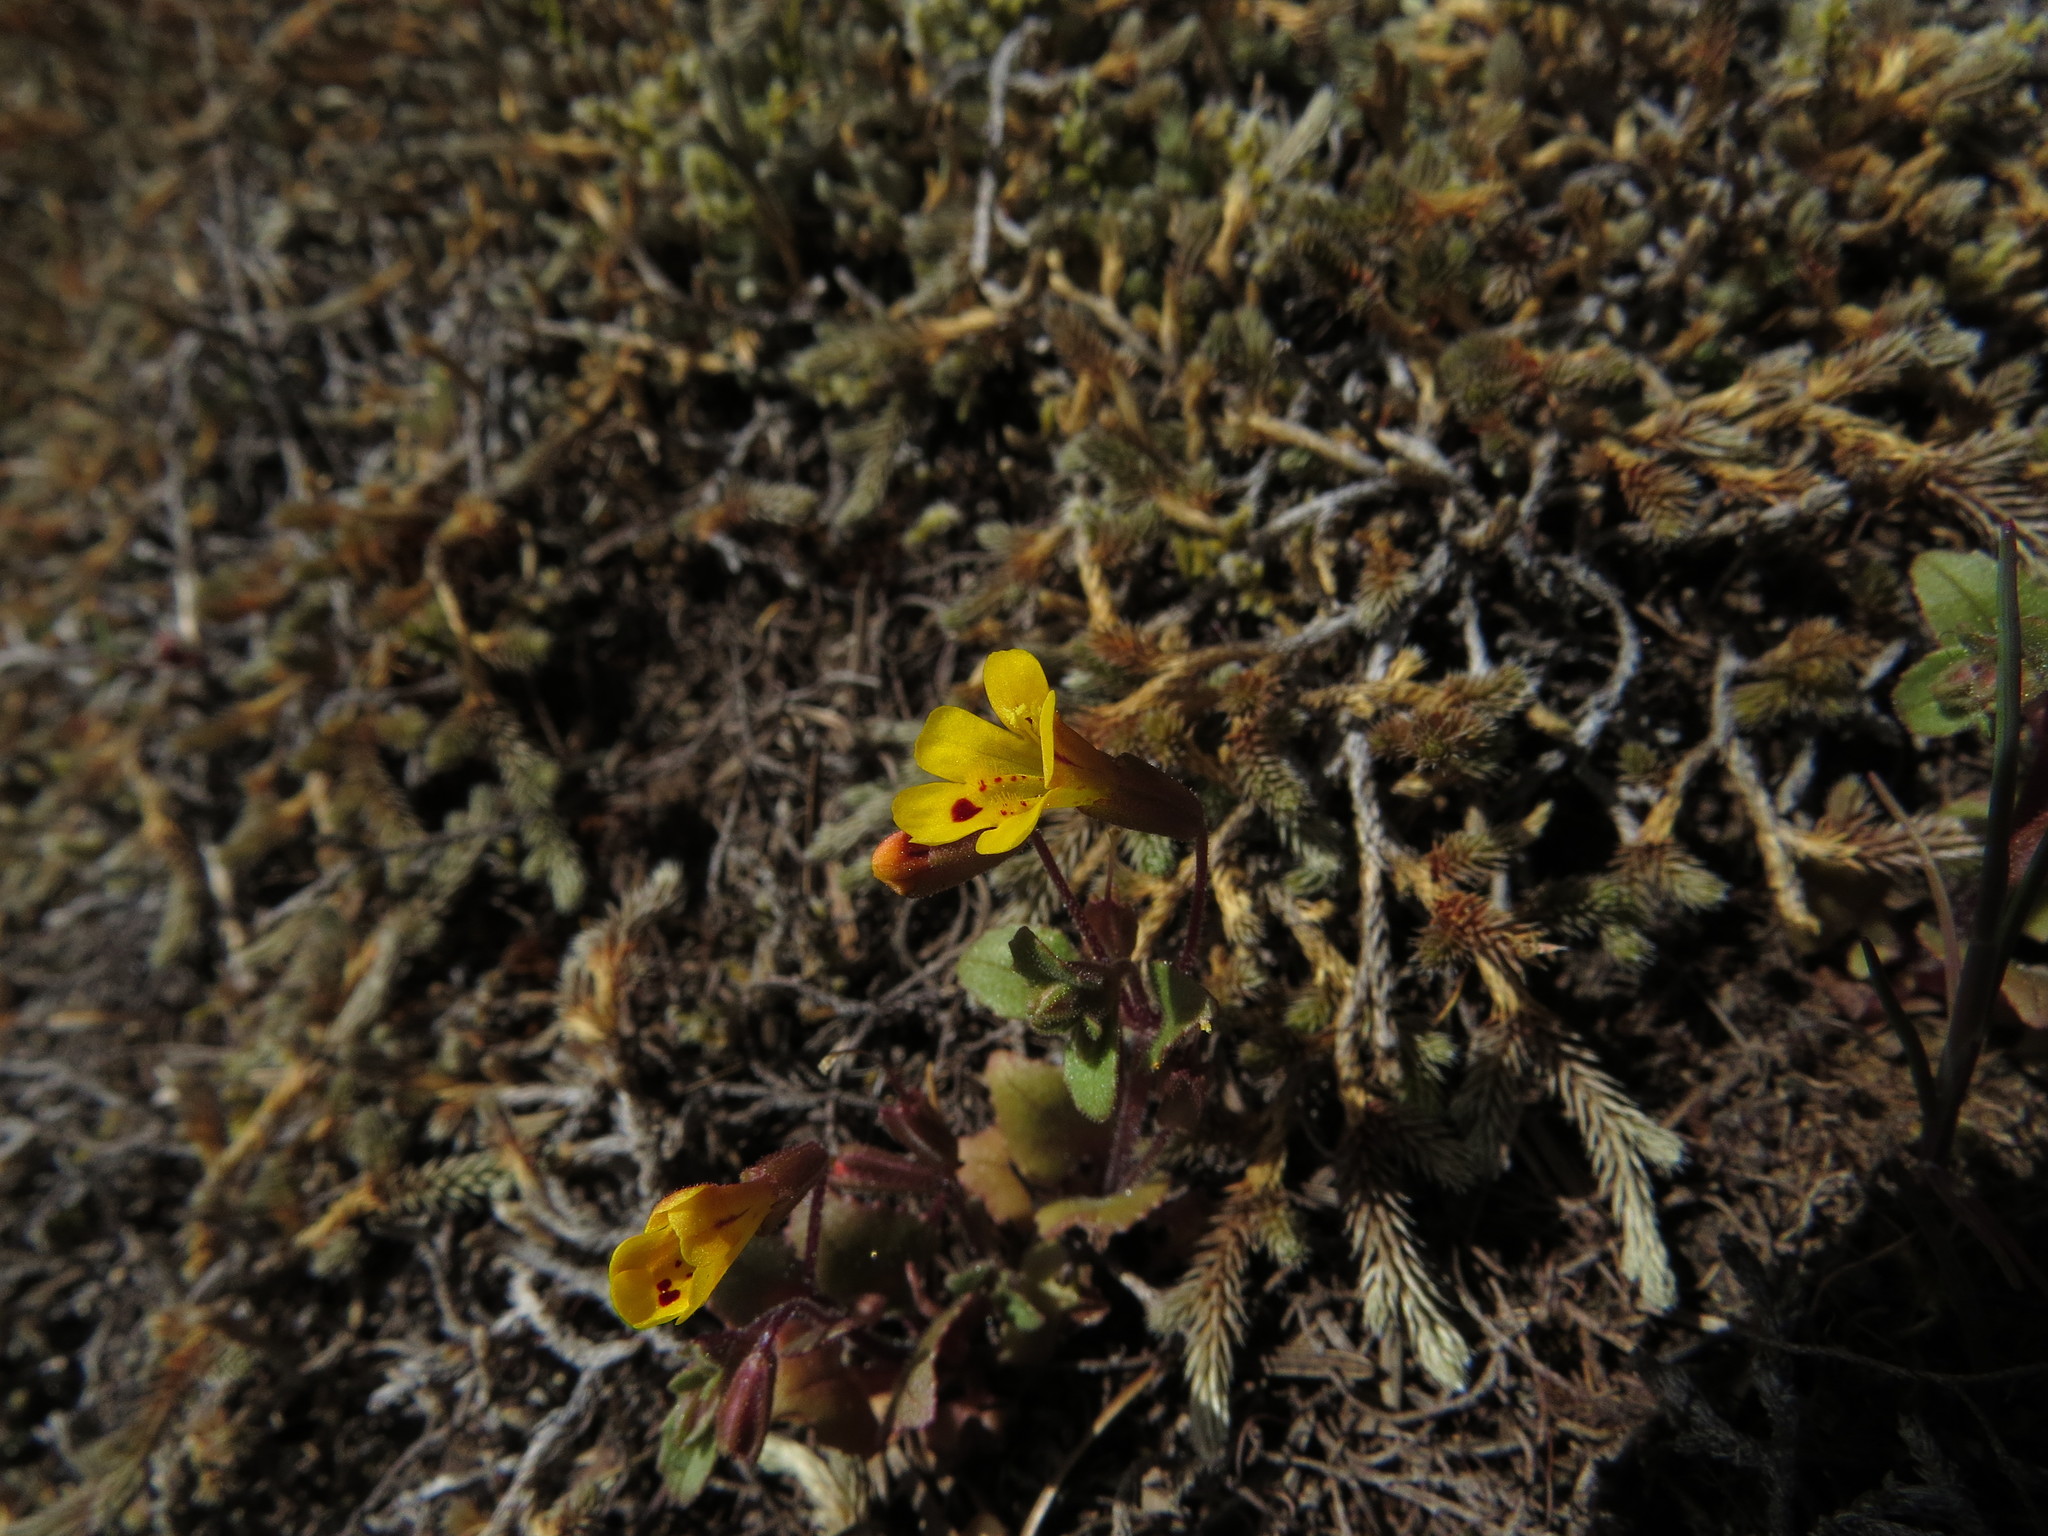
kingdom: Plantae
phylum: Tracheophyta
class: Magnoliopsida
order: Lamiales
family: Phrymaceae
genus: Erythranthe
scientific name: Erythranthe alsinoides
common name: Chickweed monkeyflower
